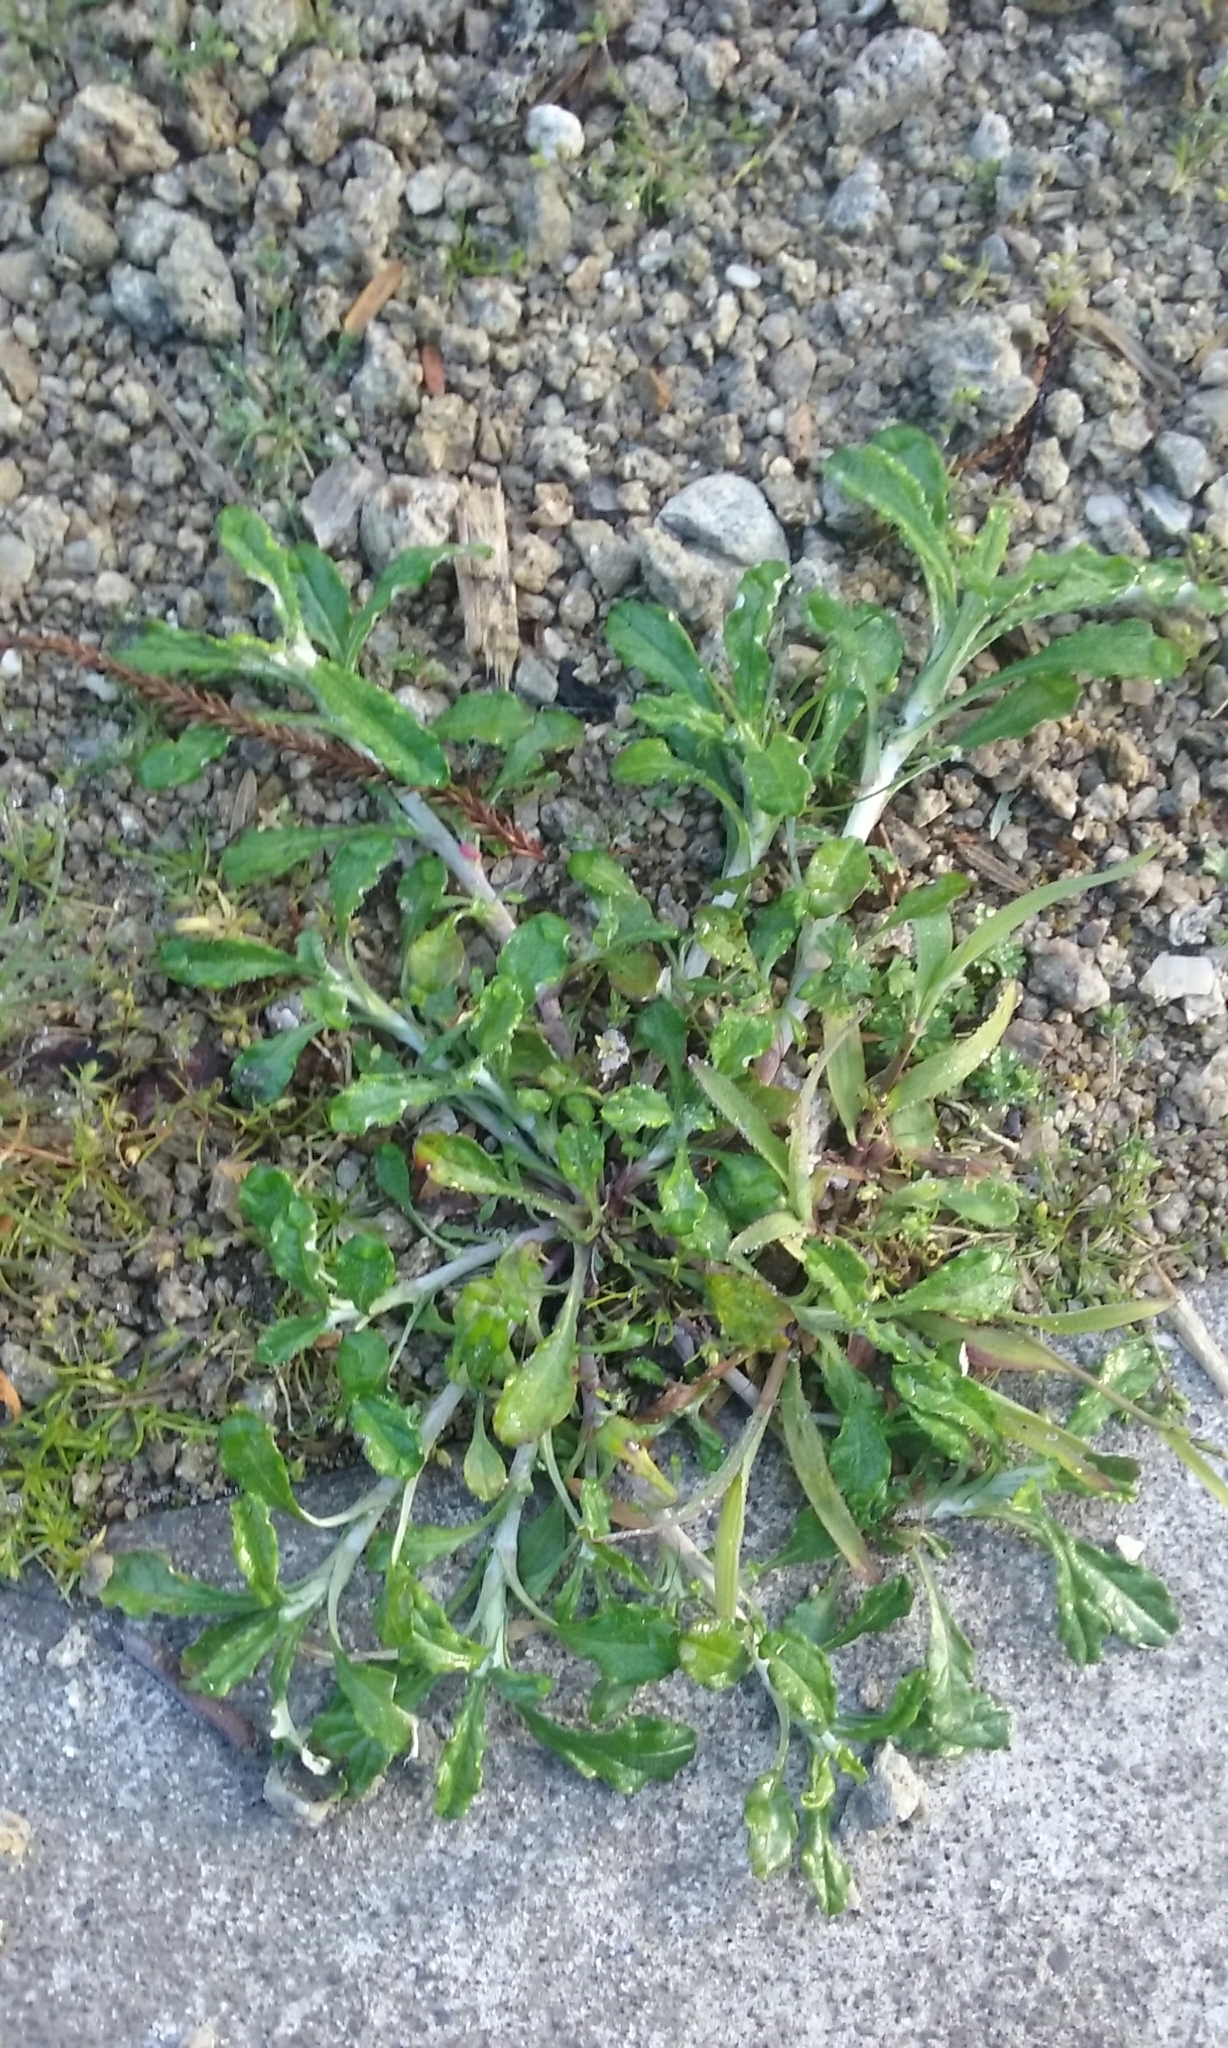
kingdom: Plantae
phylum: Tracheophyta
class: Magnoliopsida
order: Asterales
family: Asteraceae
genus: Gamochaeta
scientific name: Gamochaeta americana
